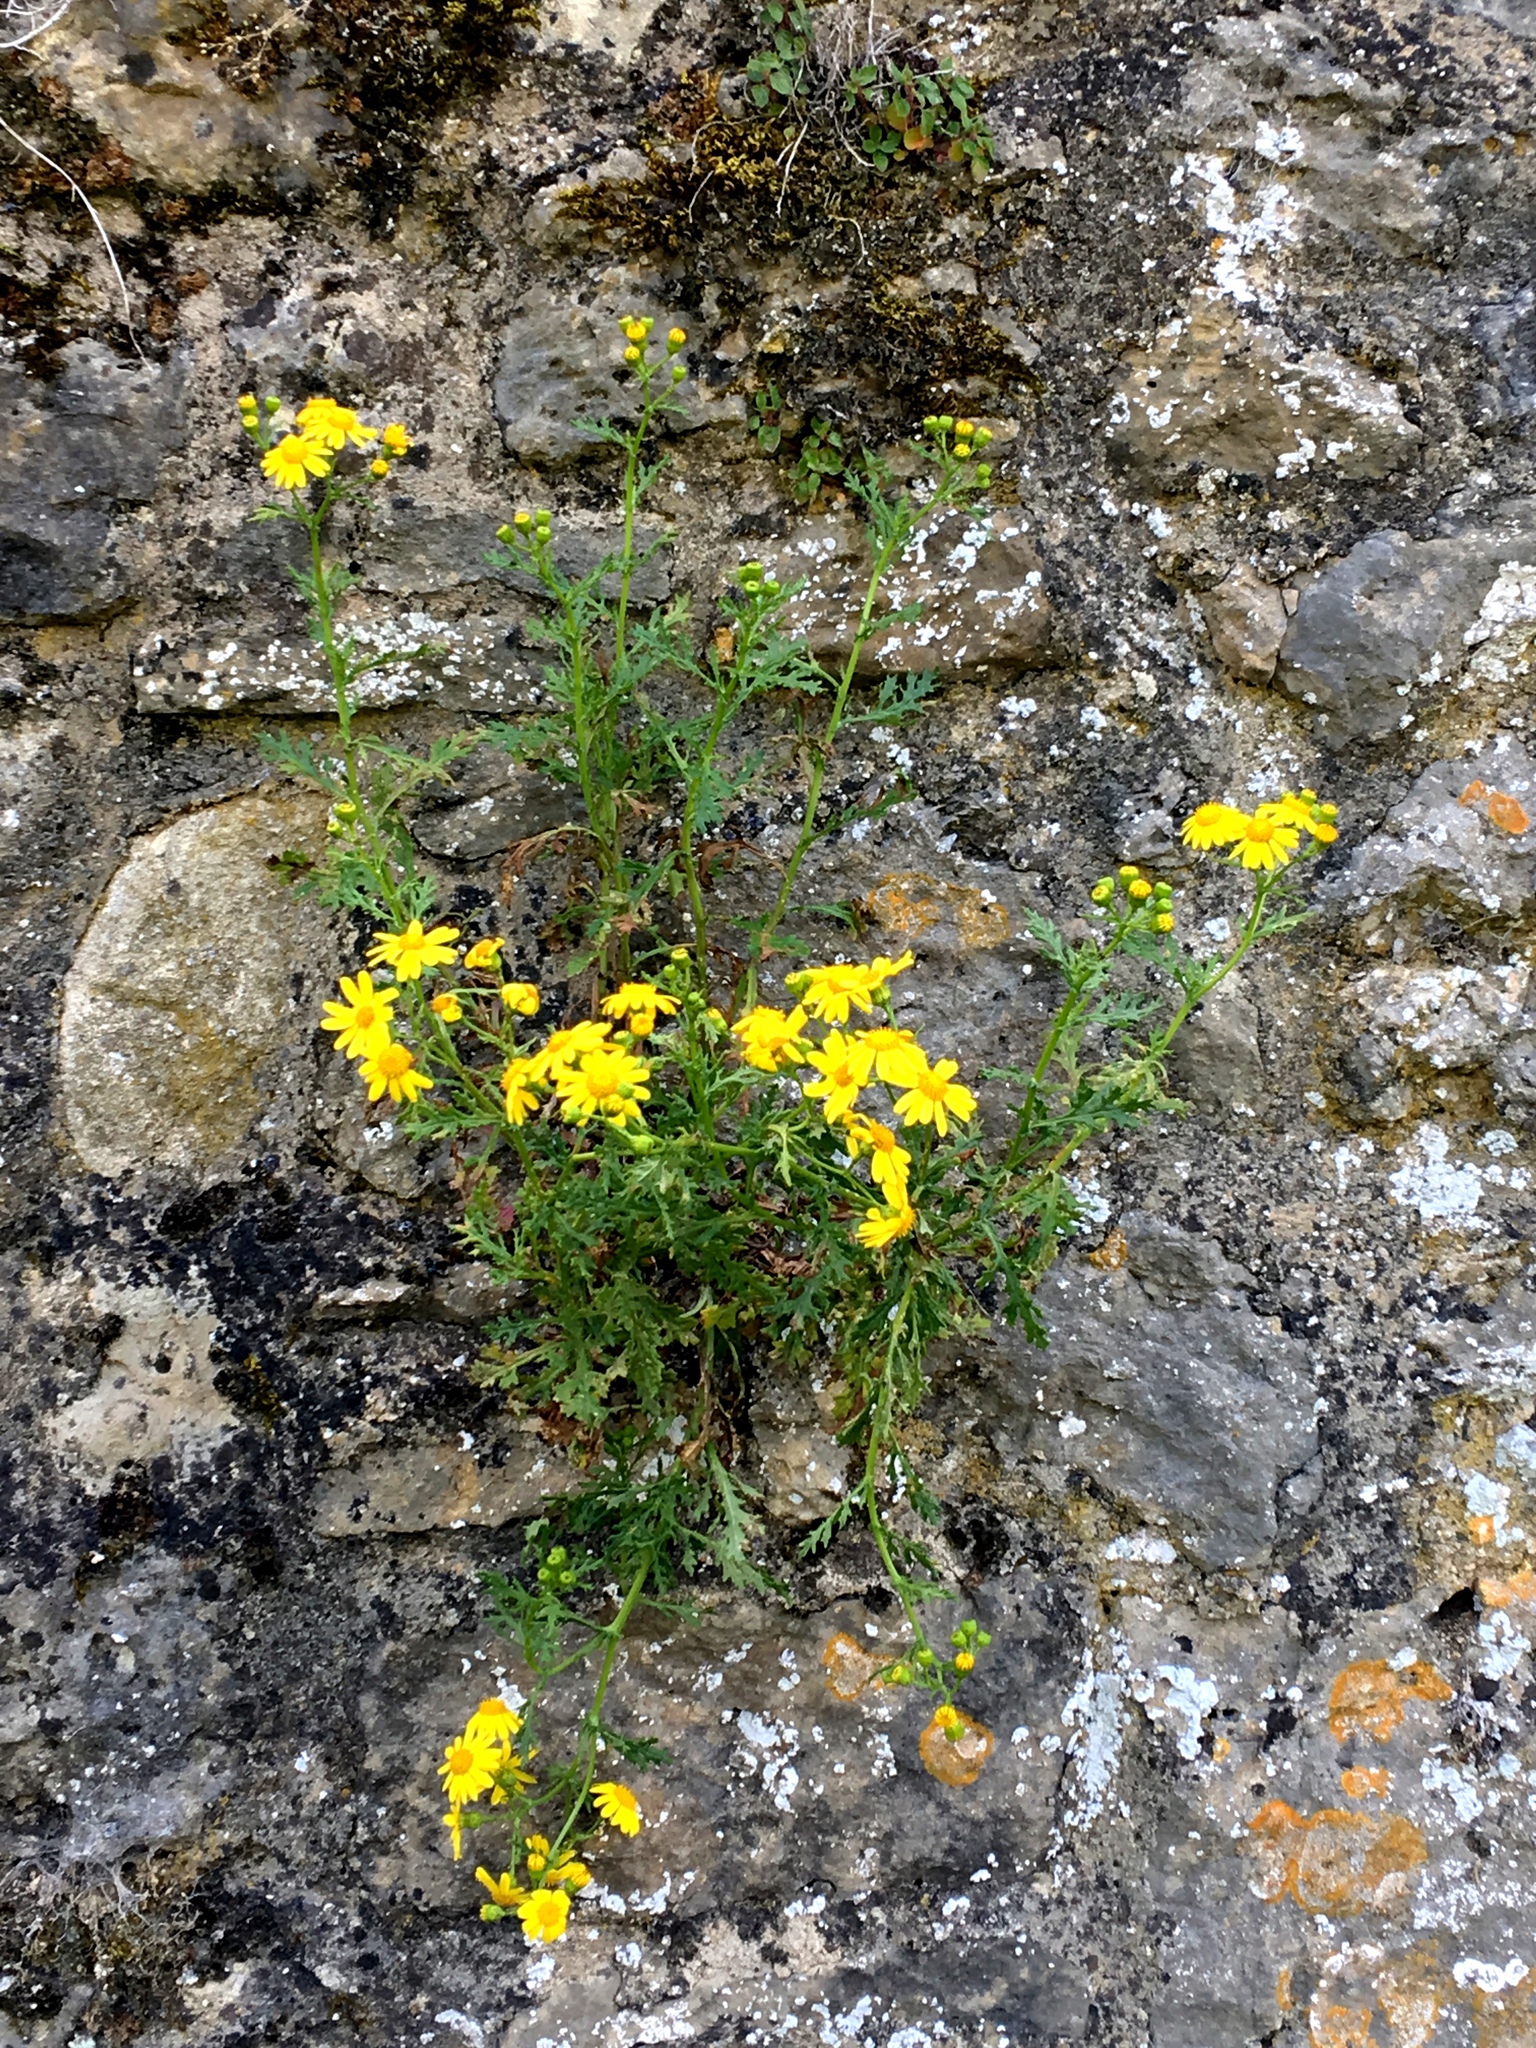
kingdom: Plantae
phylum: Tracheophyta
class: Magnoliopsida
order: Asterales
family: Asteraceae
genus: Senecio
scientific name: Senecio squalidus
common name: Oxford ragwort
